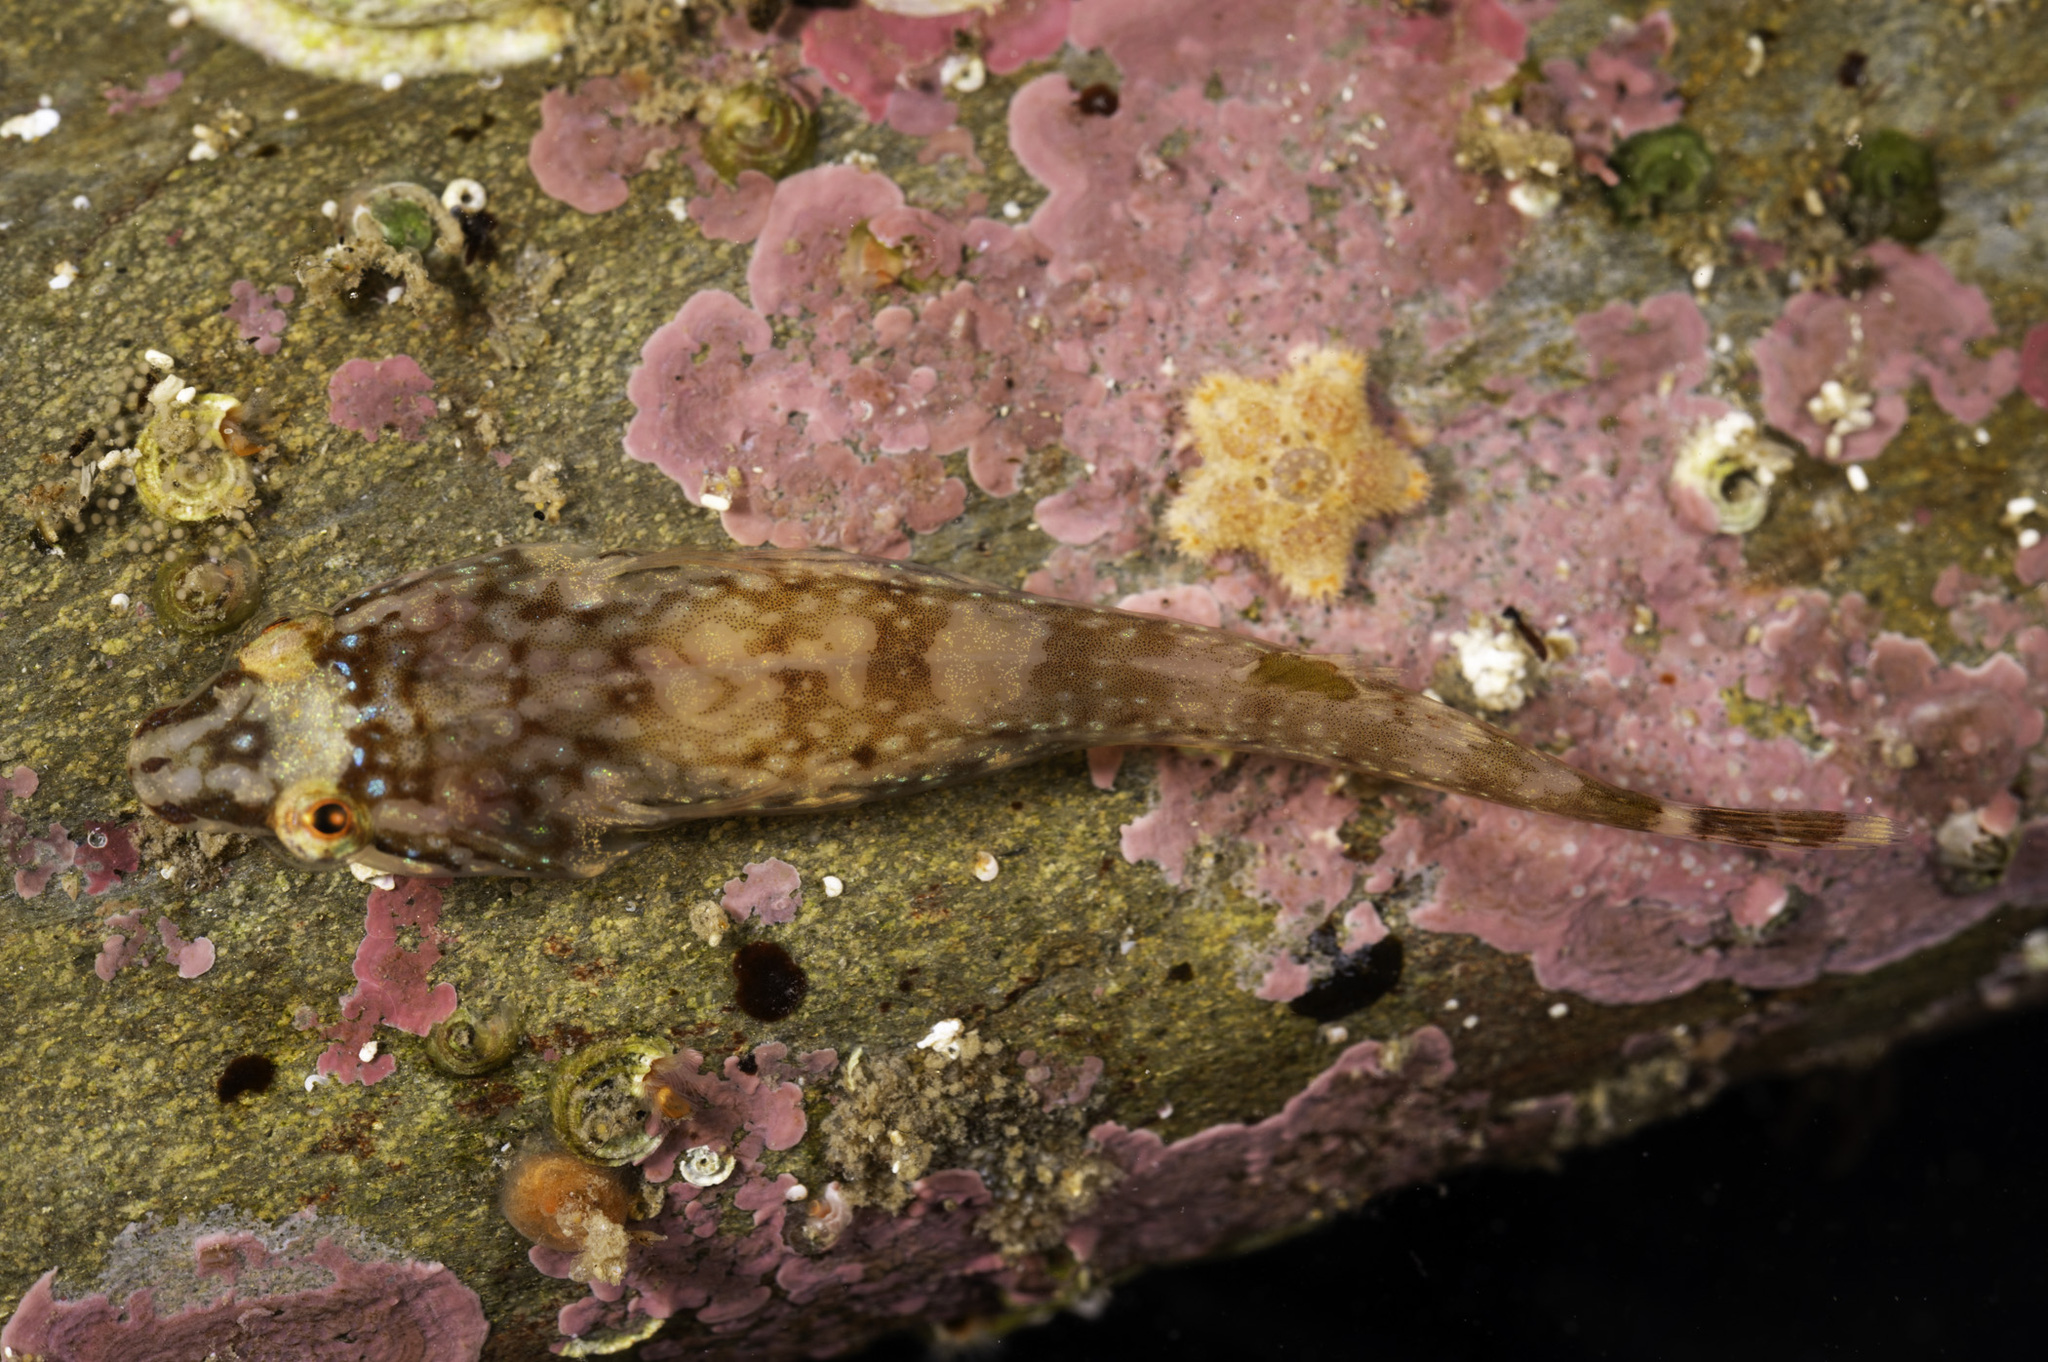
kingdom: Animalia
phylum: Chordata
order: Gobiesociformes
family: Gobiesocidae
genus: Apletodon
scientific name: Apletodon dentatus
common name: Small-headed clingfish
